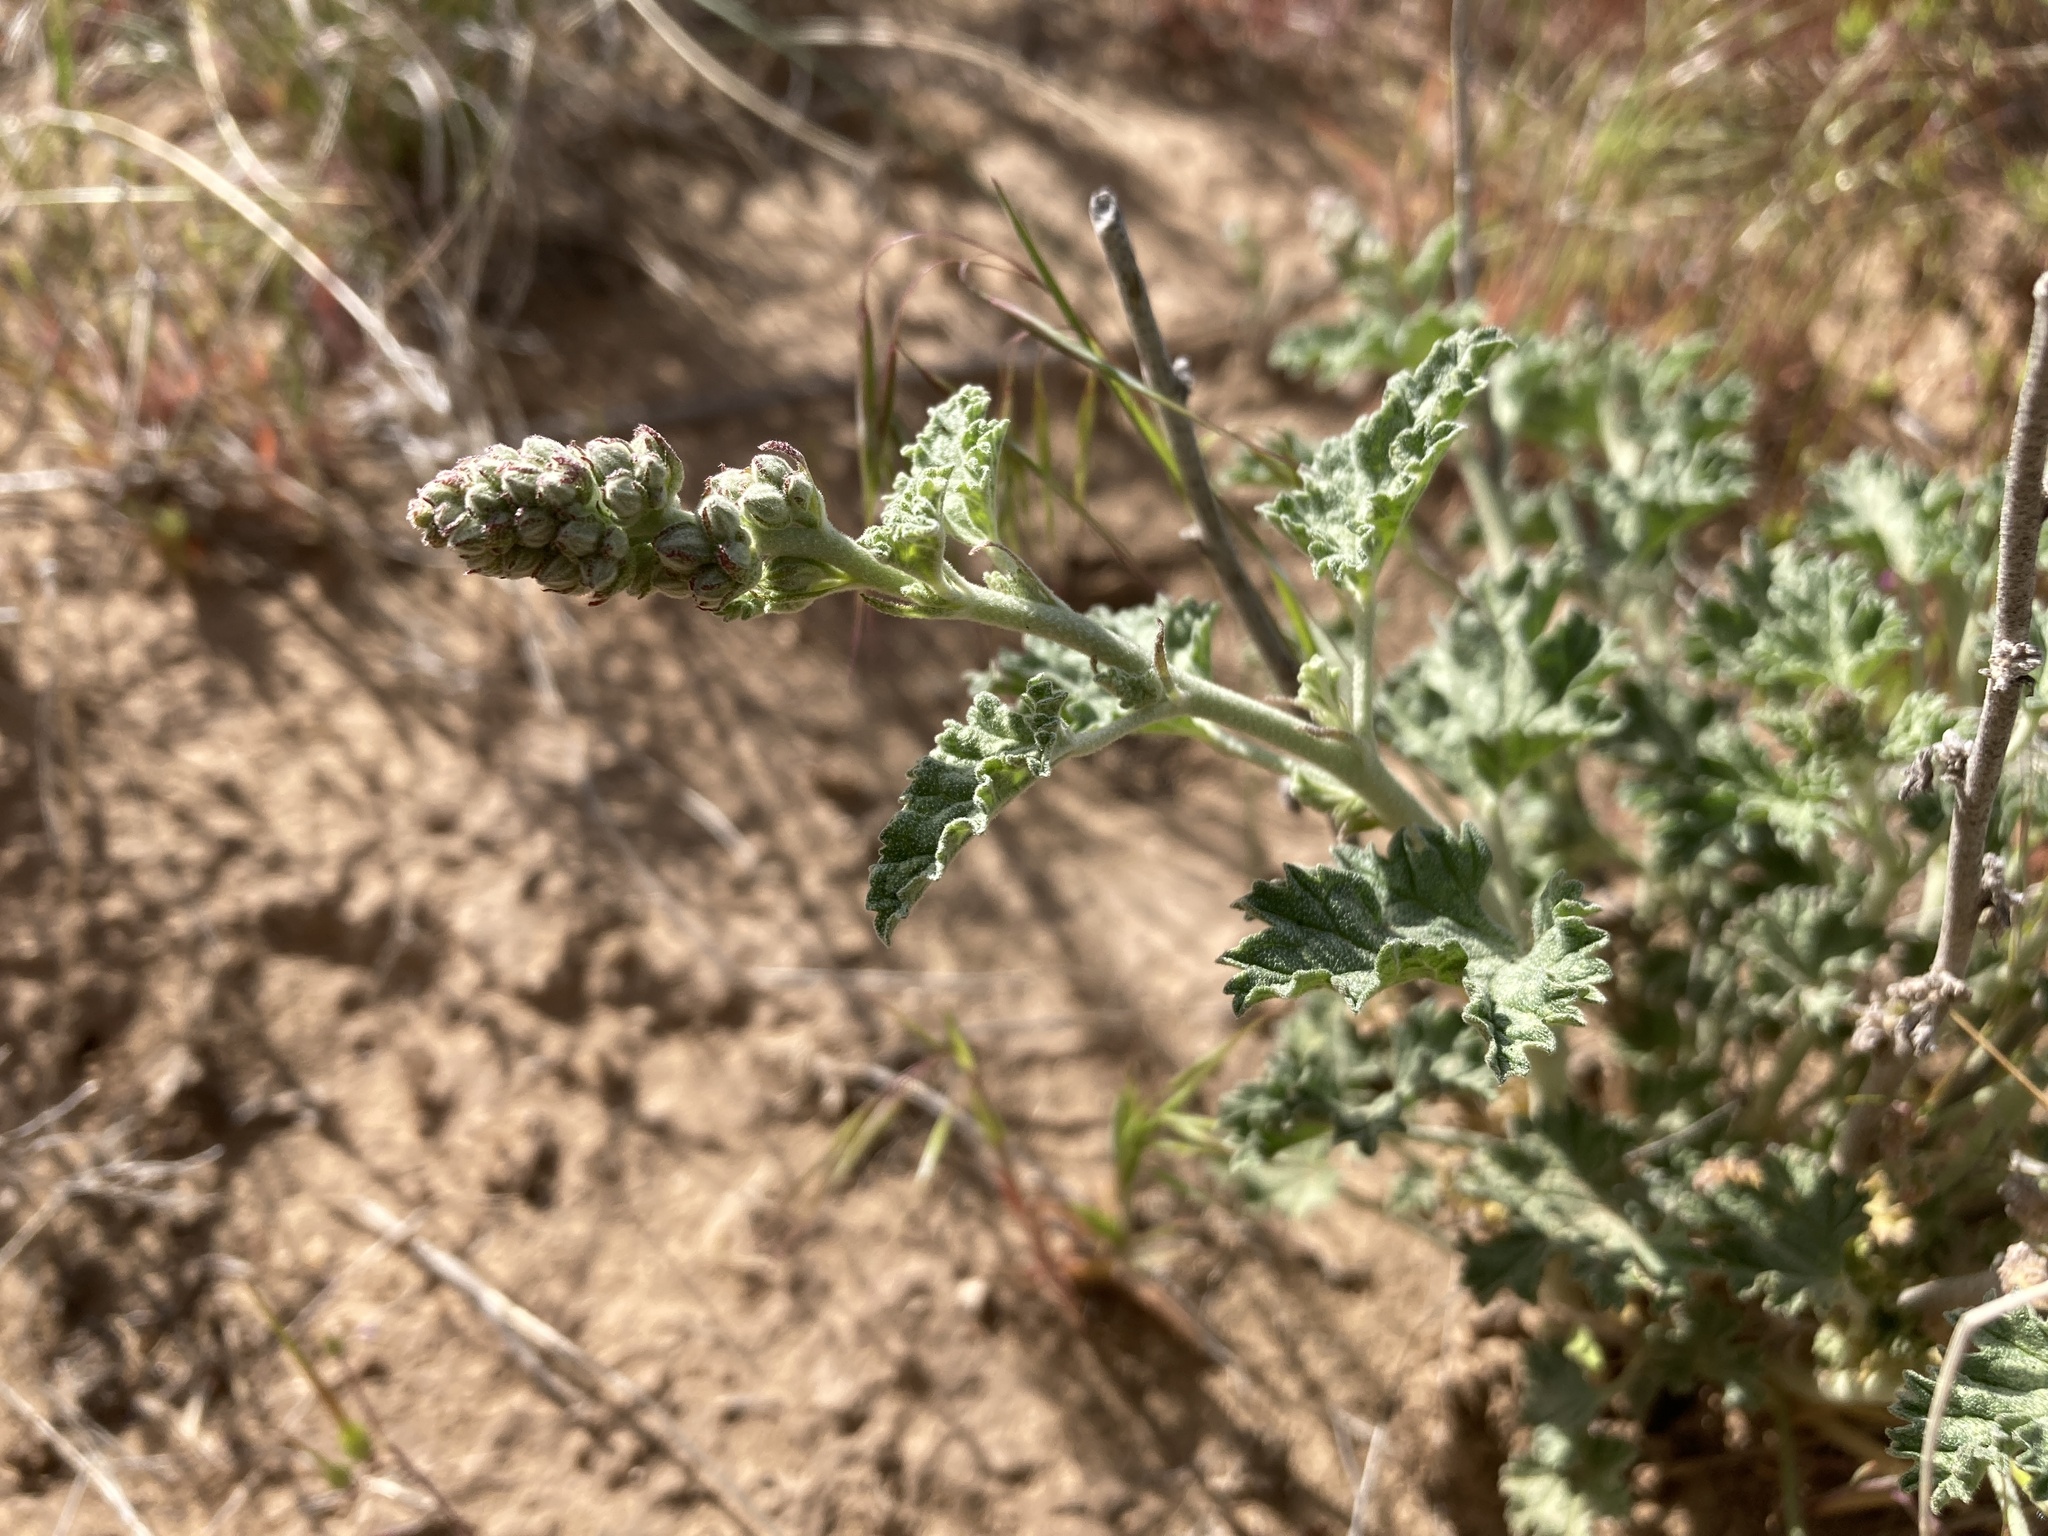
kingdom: Plantae
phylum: Tracheophyta
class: Magnoliopsida
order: Malvales
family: Malvaceae
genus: Sphaeralcea
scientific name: Sphaeralcea parvifolia
